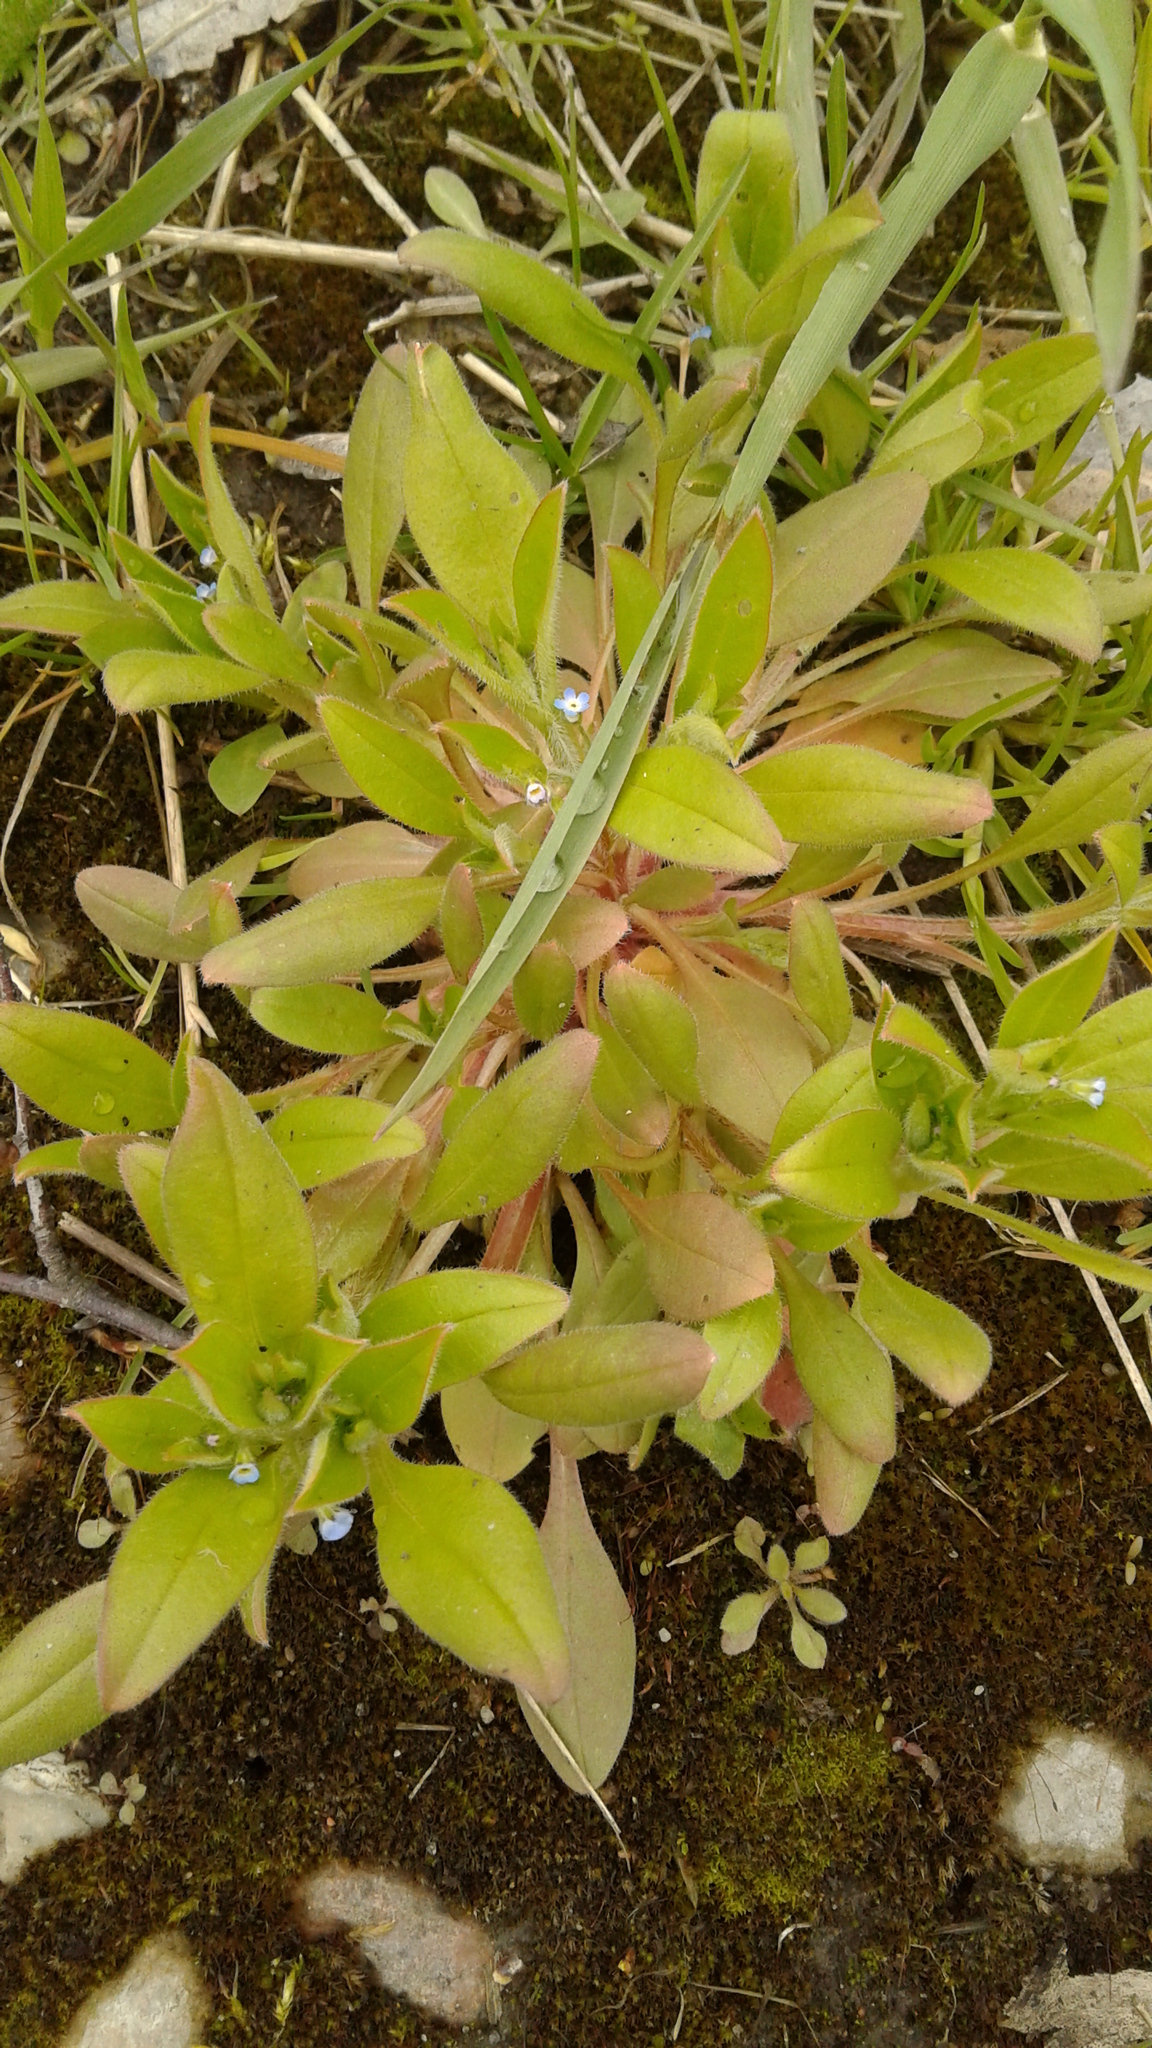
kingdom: Plantae
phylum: Tracheophyta
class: Magnoliopsida
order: Boraginales
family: Boraginaceae
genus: Myosotis
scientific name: Myosotis sparsiflora
